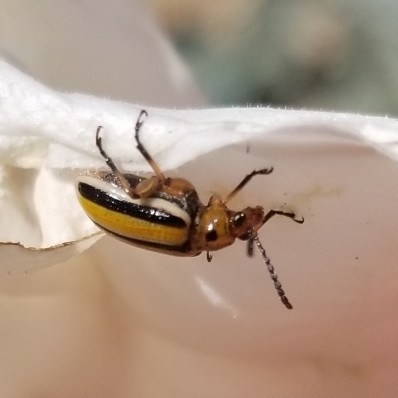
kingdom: Animalia
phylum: Arthropoda
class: Insecta
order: Coleoptera
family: Chrysomelidae
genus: Lema
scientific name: Lema daturaphila
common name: Leaf beetle
